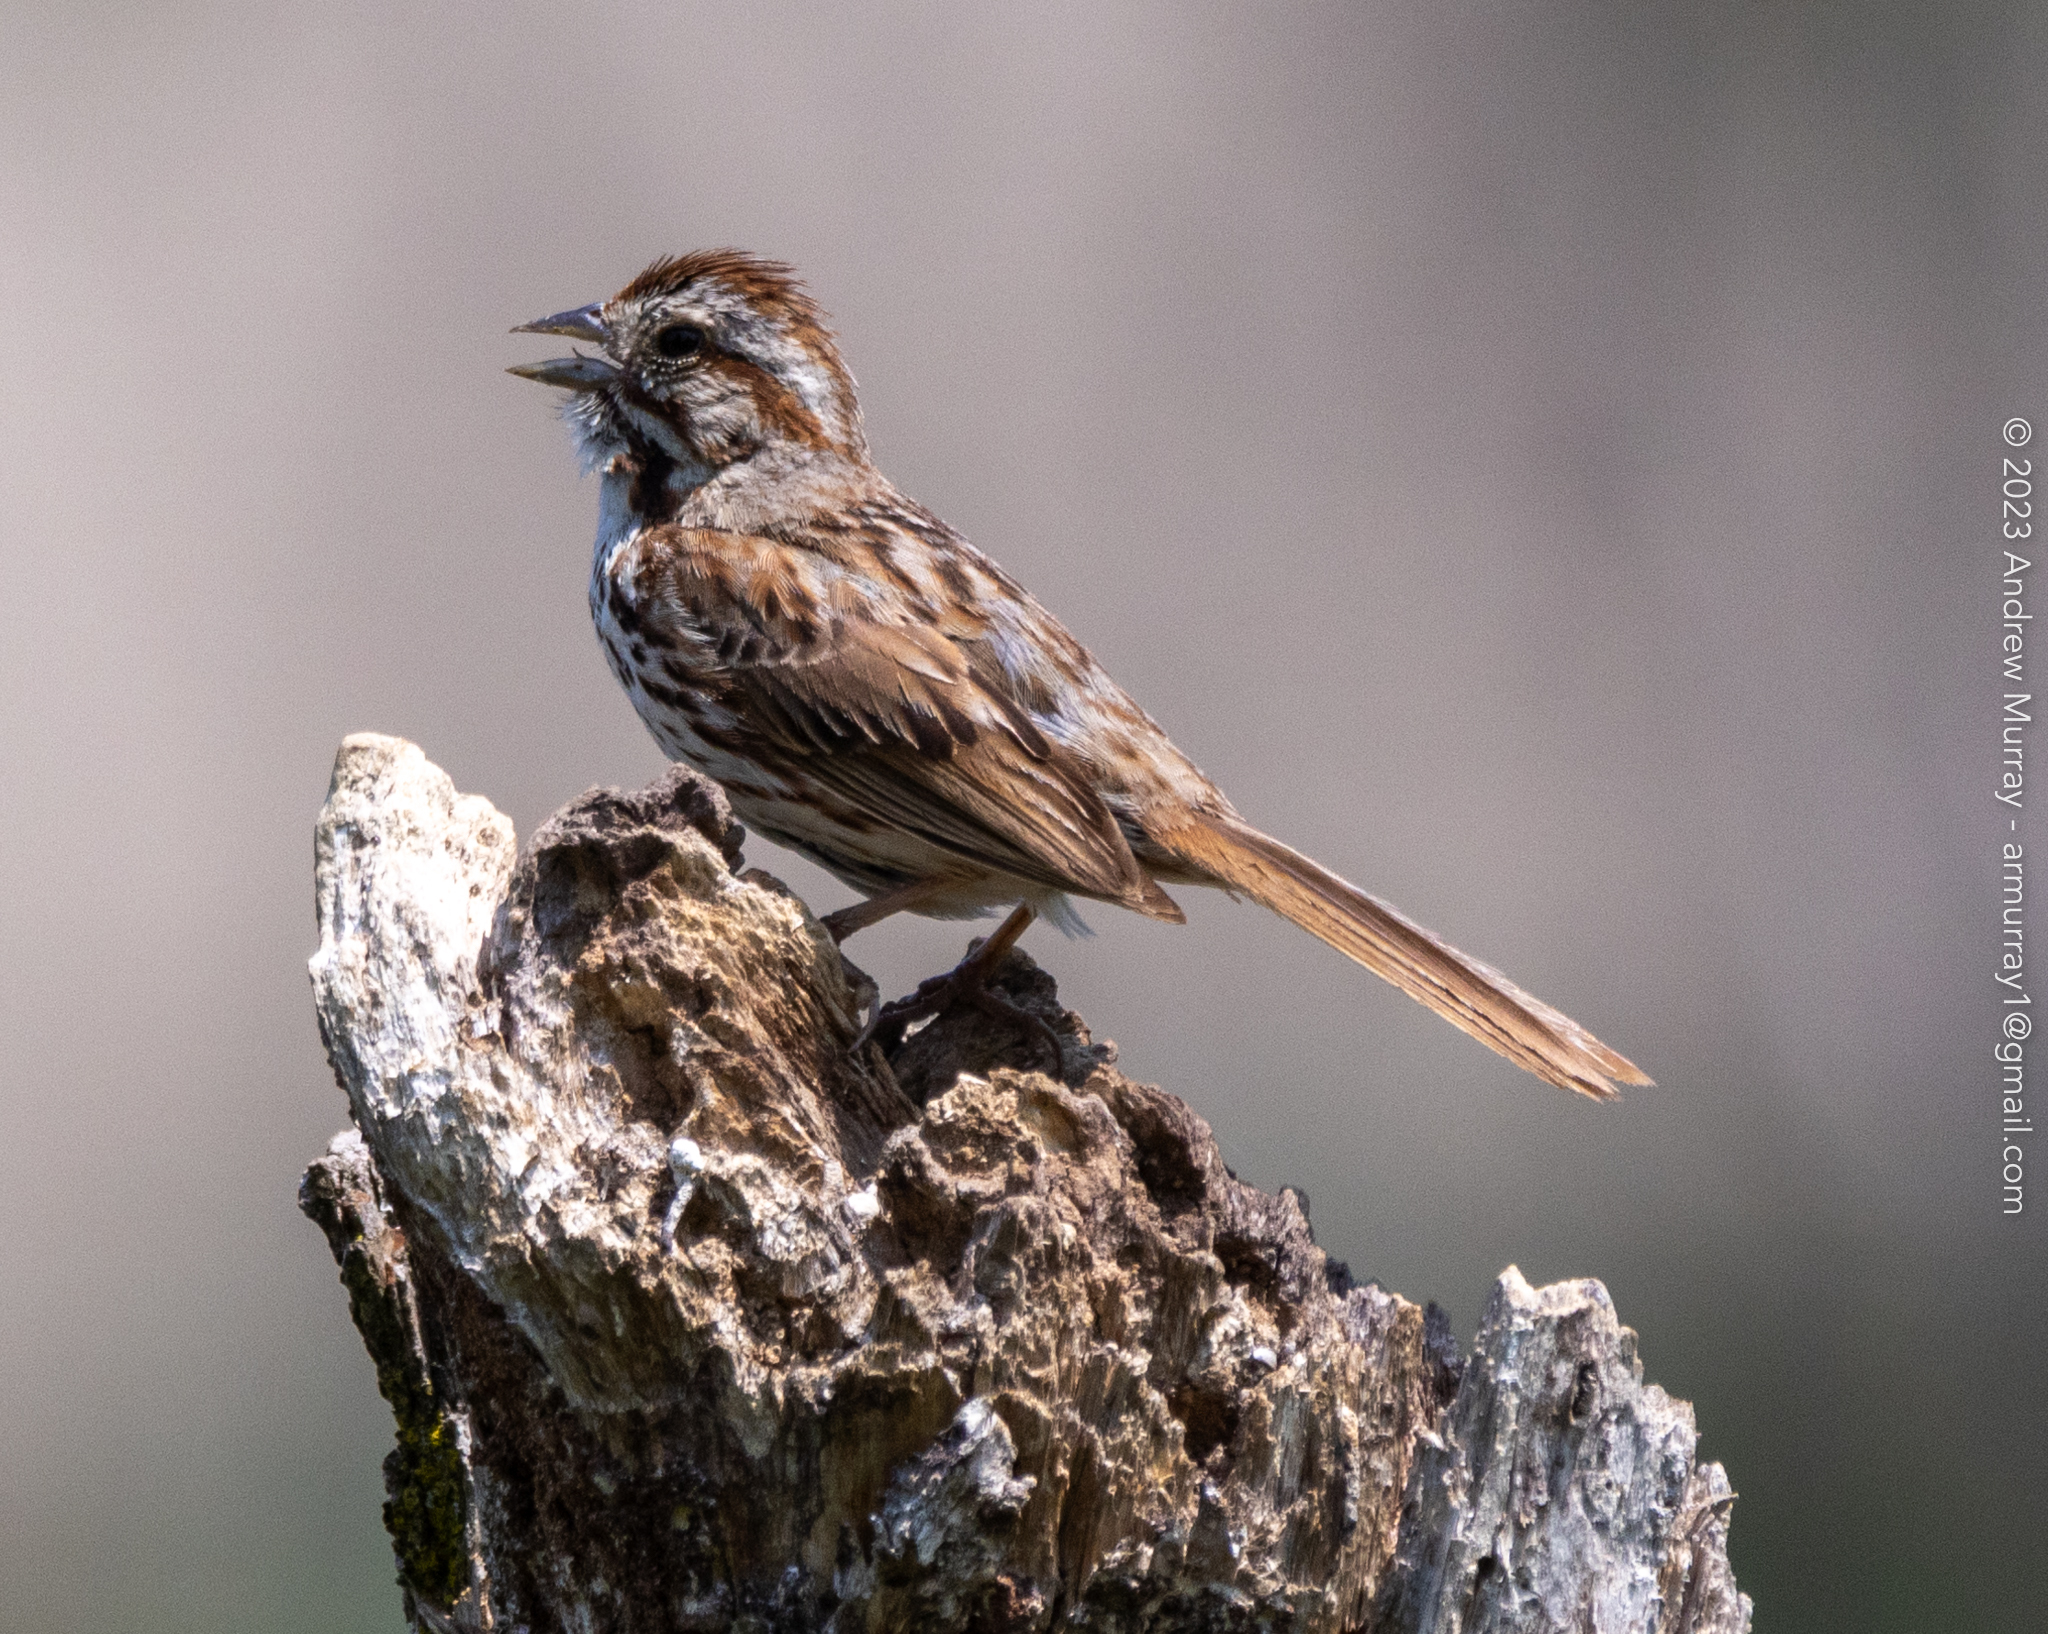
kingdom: Animalia
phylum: Chordata
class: Aves
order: Passeriformes
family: Passerellidae
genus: Melospiza
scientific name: Melospiza melodia
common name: Song sparrow
